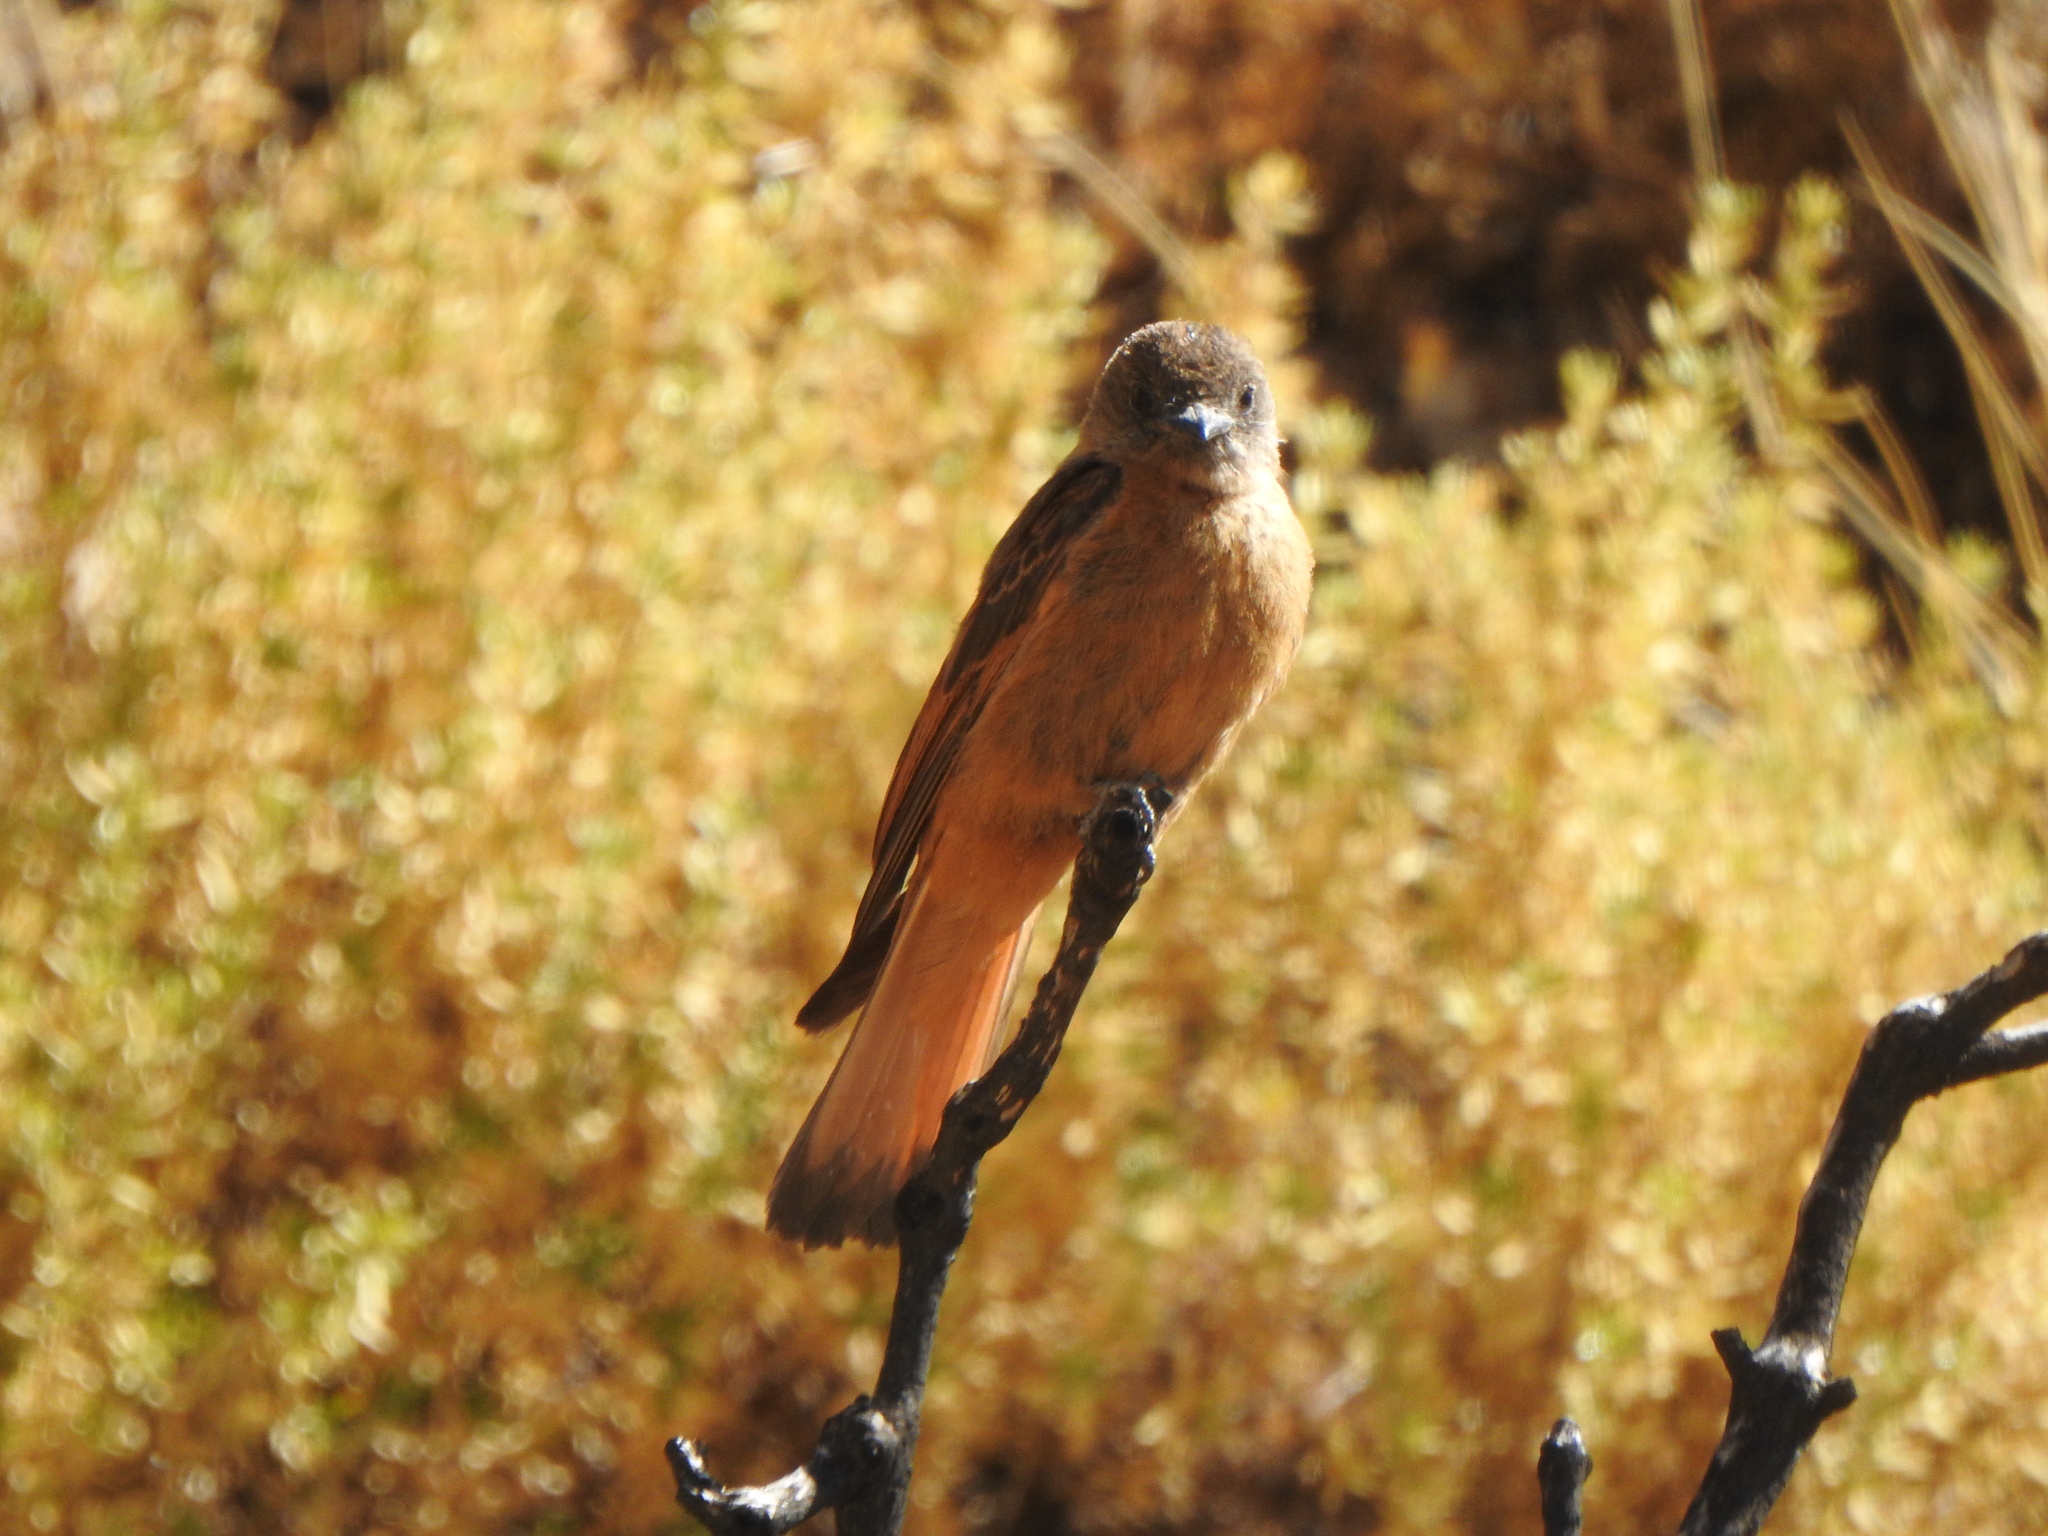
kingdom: Animalia
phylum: Chordata
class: Aves
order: Passeriformes
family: Tyrannidae
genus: Hirundinea
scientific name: Hirundinea ferruginea
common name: Cliff flycatcher
